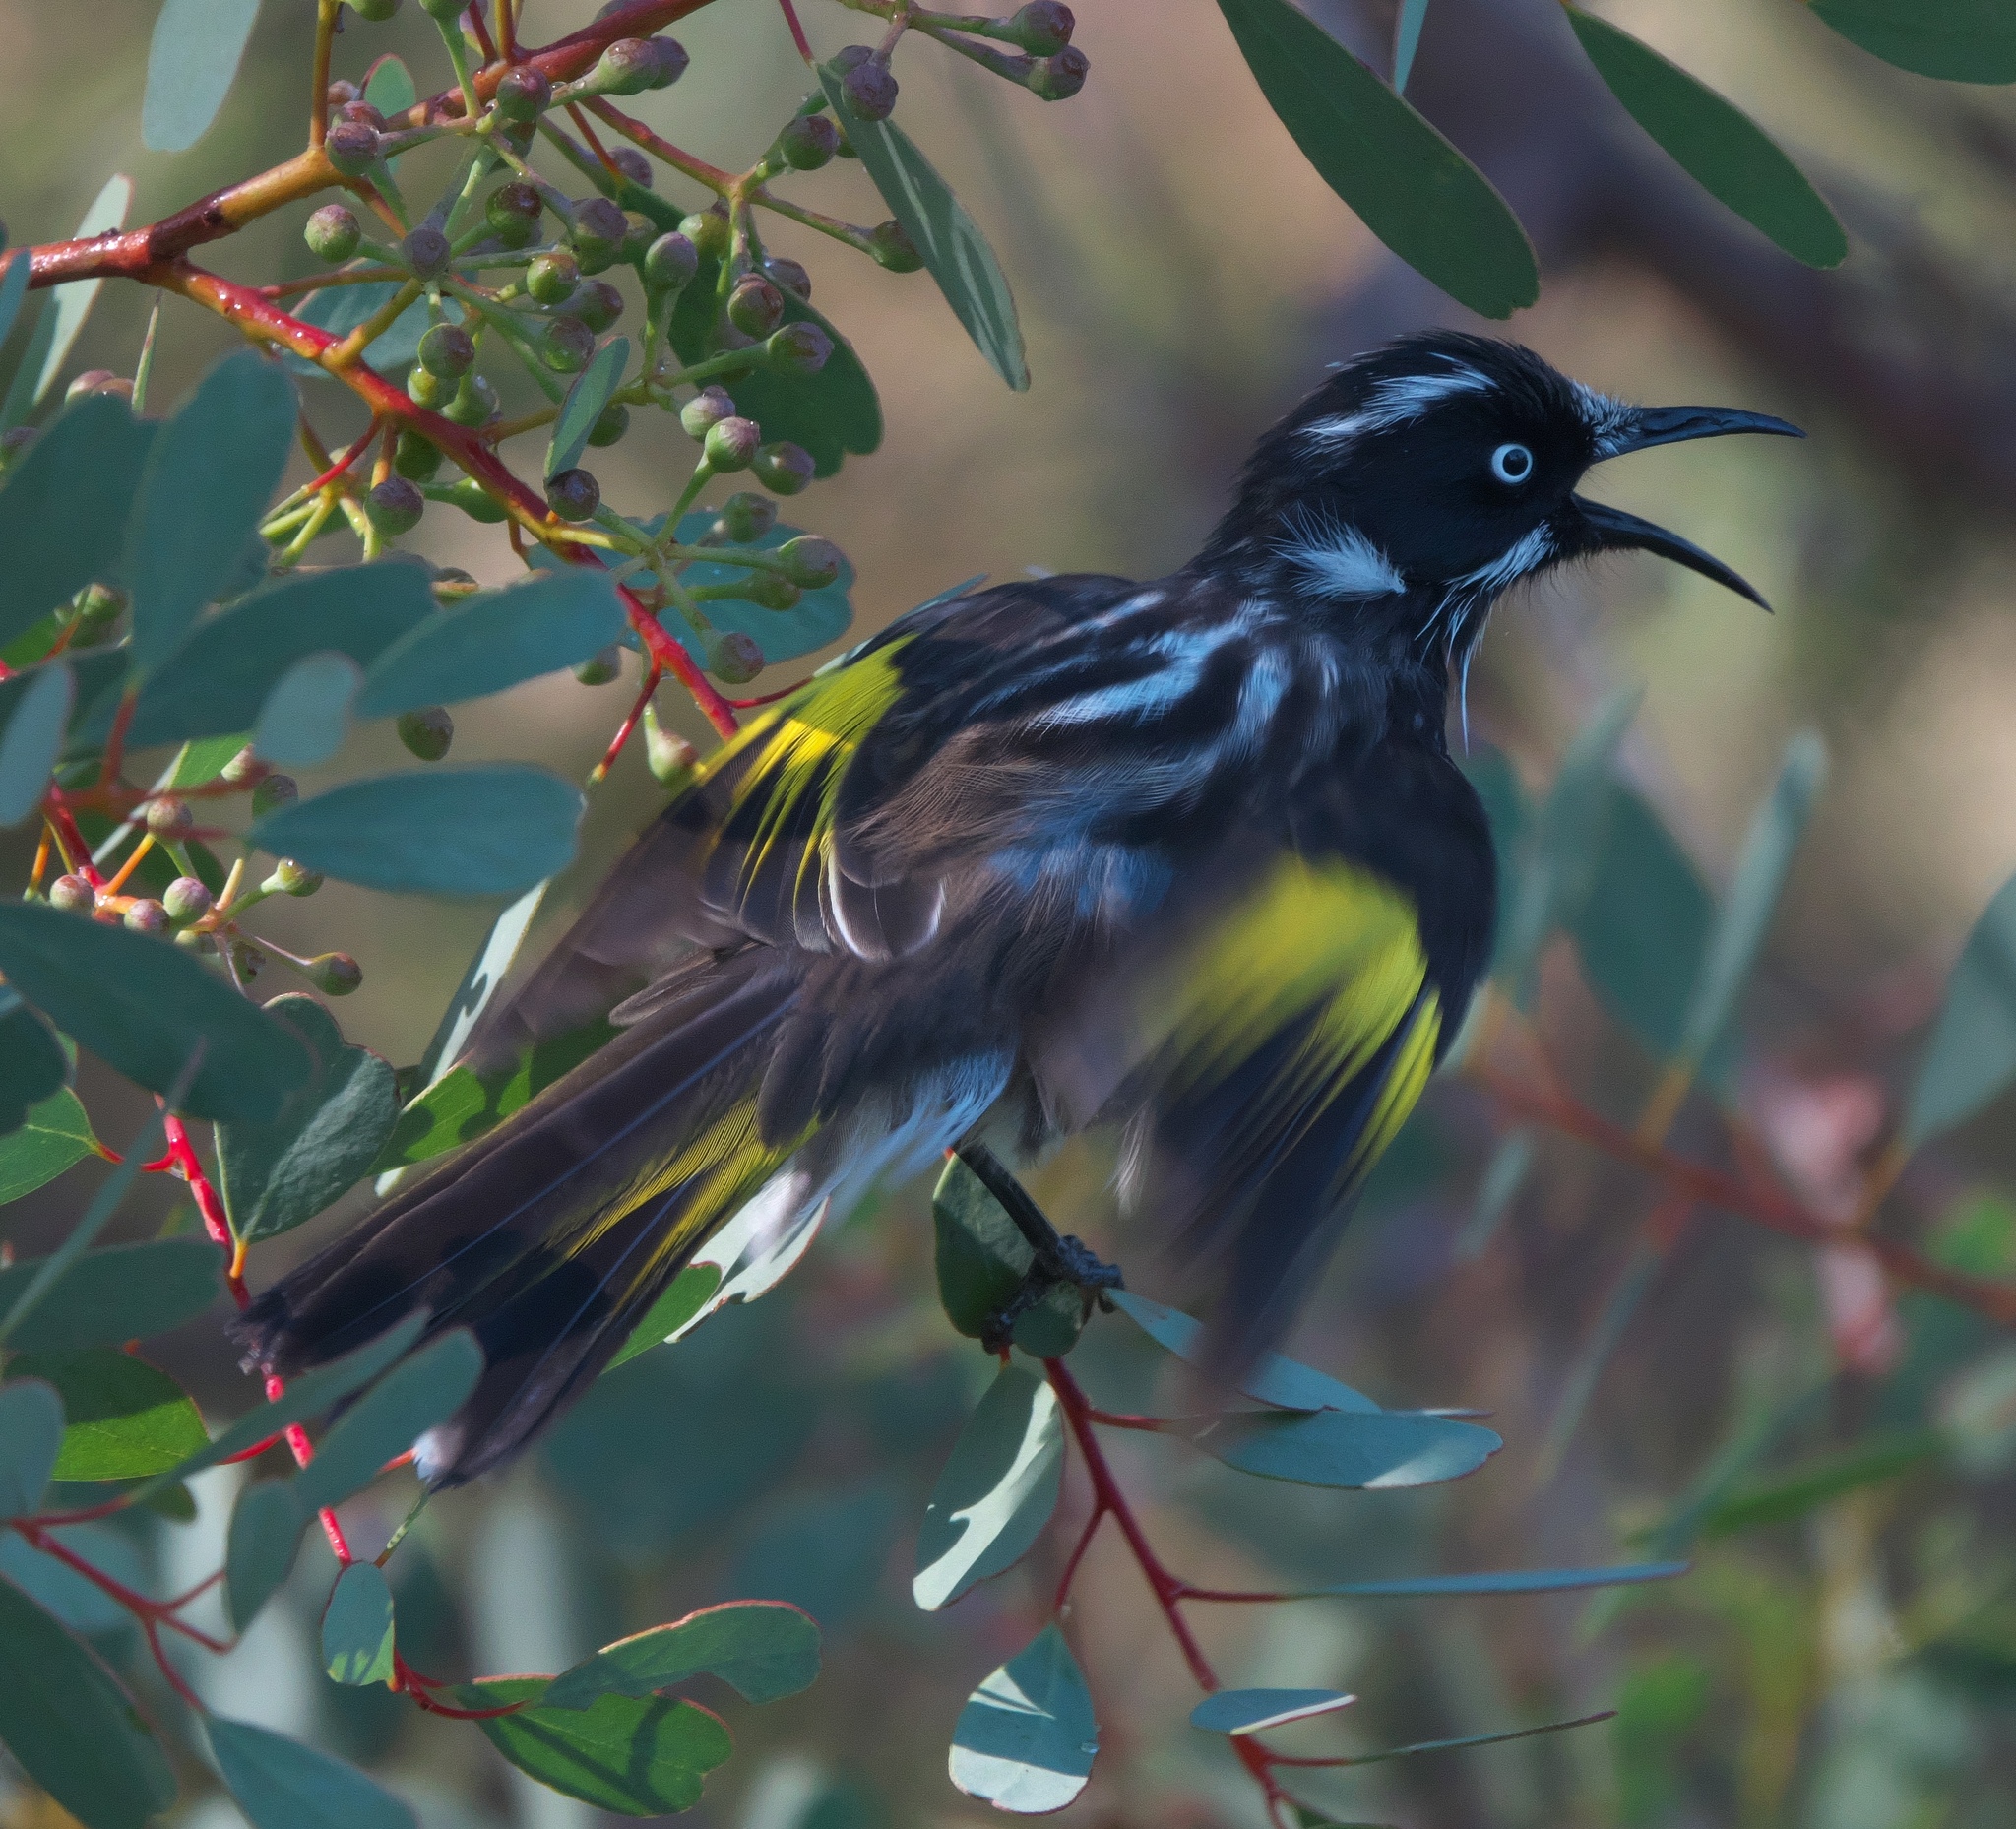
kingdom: Animalia
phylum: Chordata
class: Aves
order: Passeriformes
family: Meliphagidae
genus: Phylidonyris
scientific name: Phylidonyris novaehollandiae
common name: New holland honeyeater
